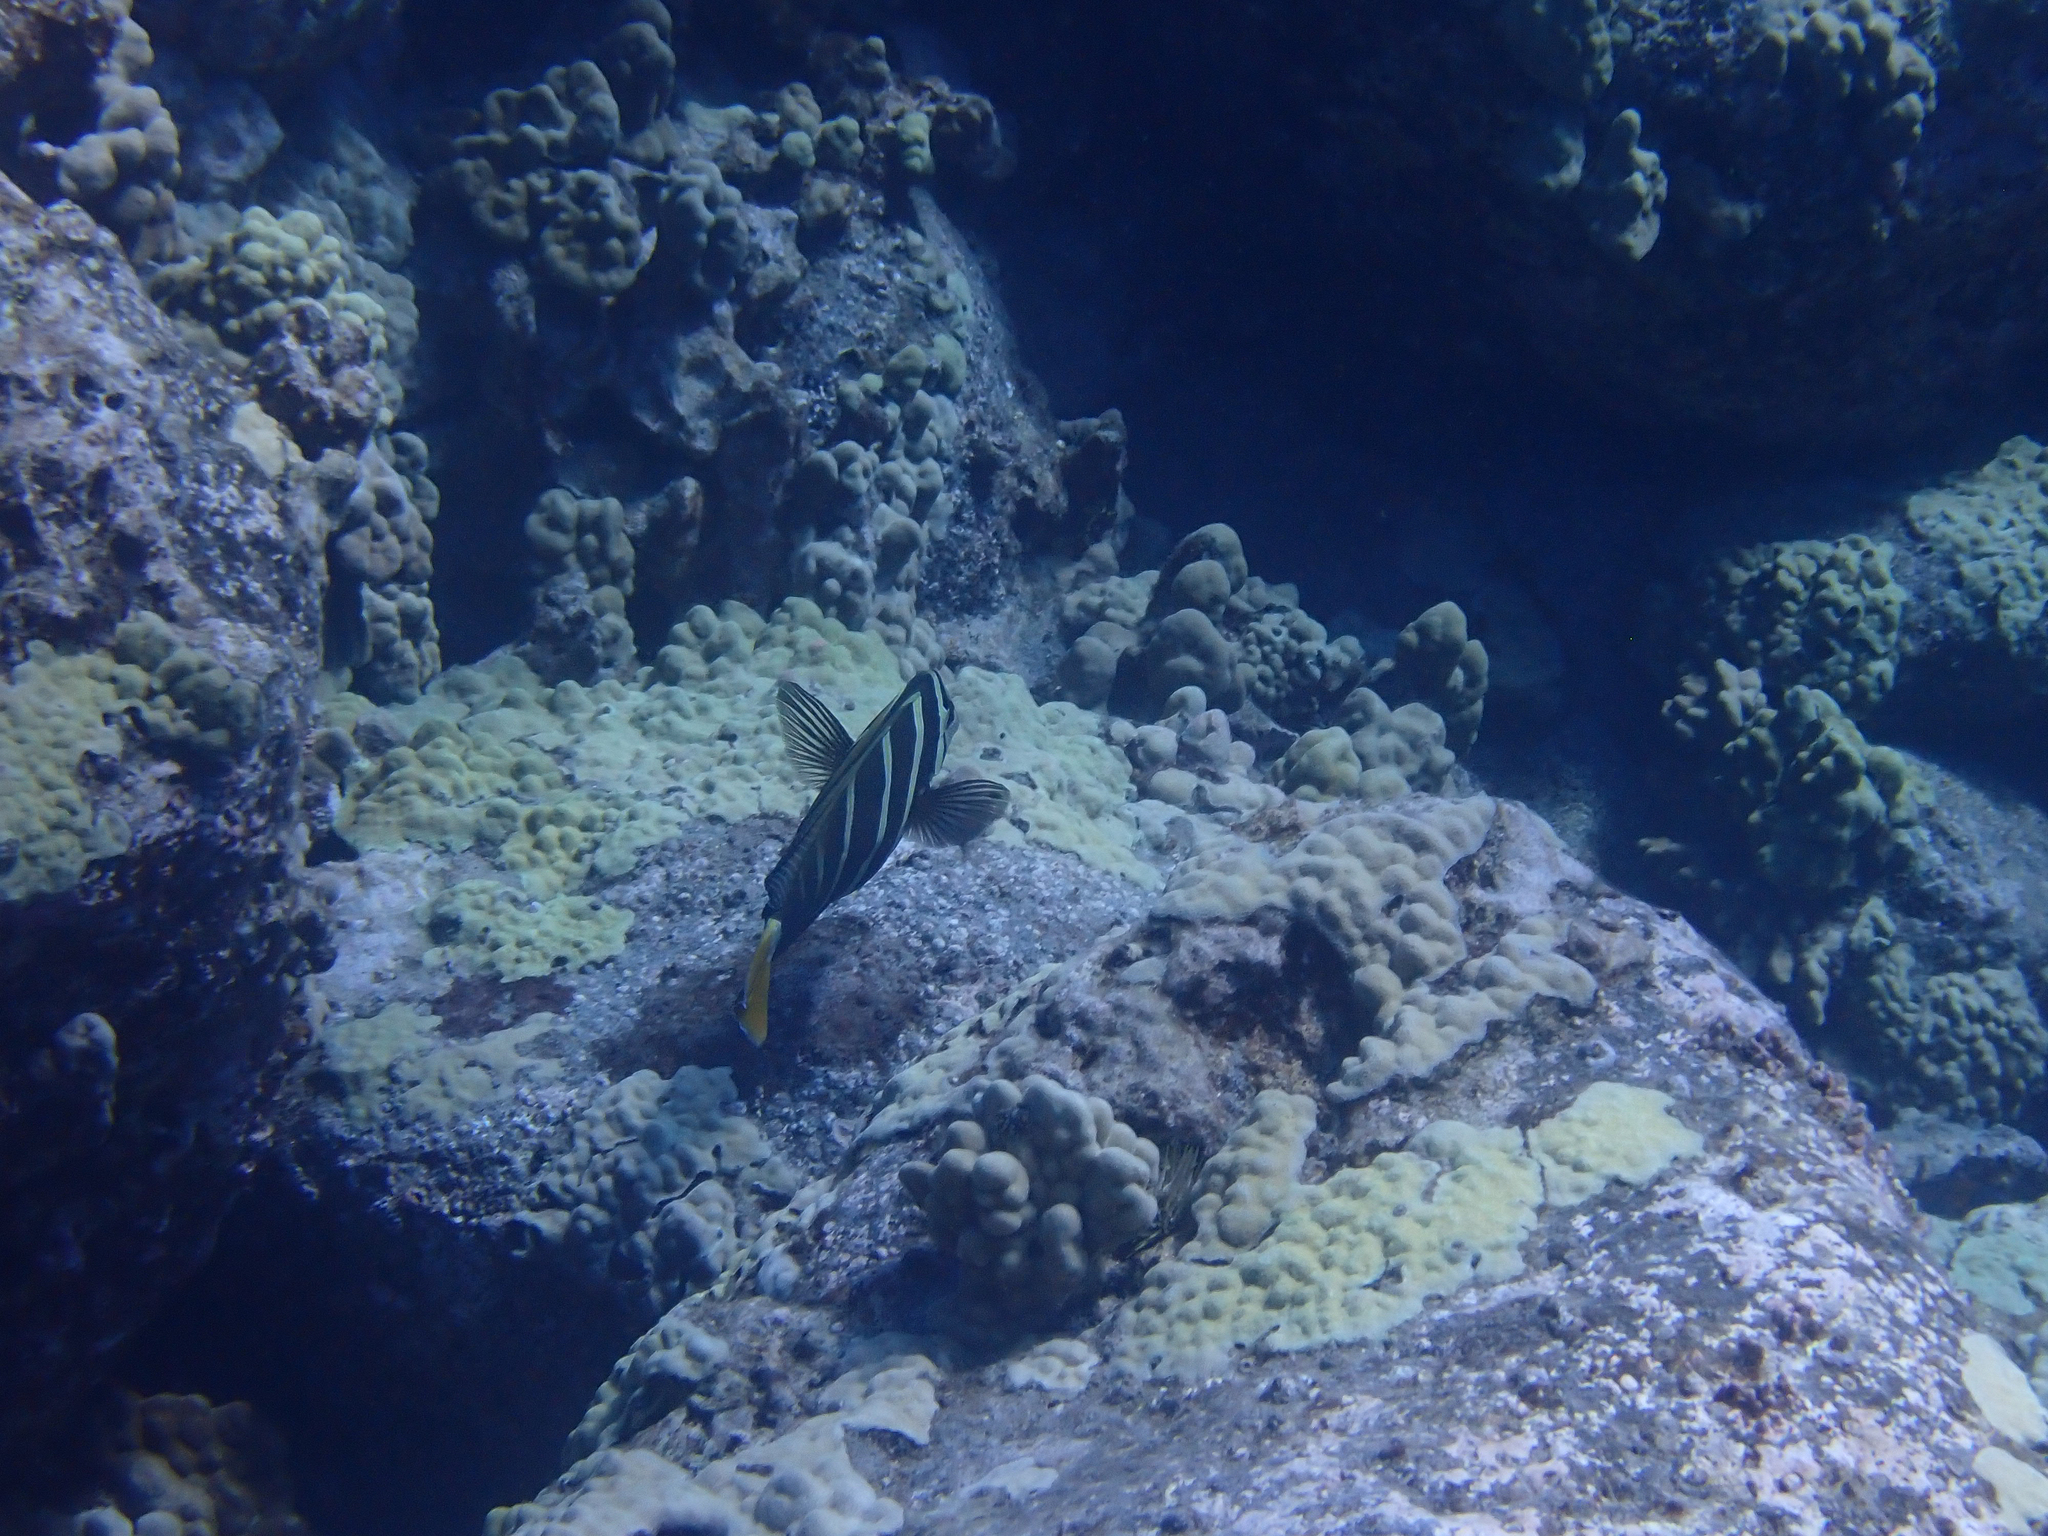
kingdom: Animalia
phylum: Chordata
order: Perciformes
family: Acanthuridae
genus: Zebrasoma
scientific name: Zebrasoma veliferum
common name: Sailfin surgeonfish
